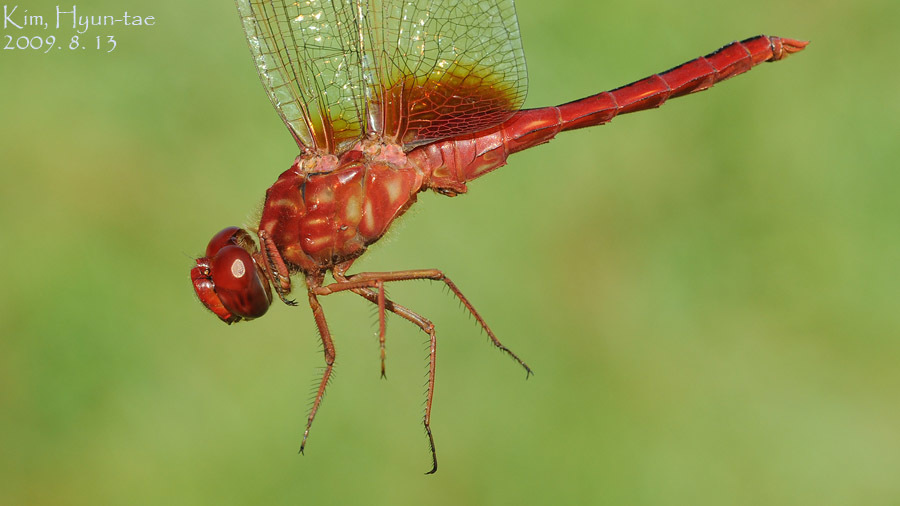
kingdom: Animalia
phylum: Arthropoda
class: Insecta
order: Odonata
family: Libellulidae
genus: Crocothemis
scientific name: Crocothemis servilia
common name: Scarlet skimmer
